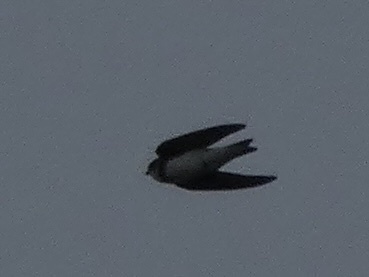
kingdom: Animalia
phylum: Chordata
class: Aves
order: Passeriformes
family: Hirundinidae
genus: Riparia
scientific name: Riparia riparia
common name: Sand martin
